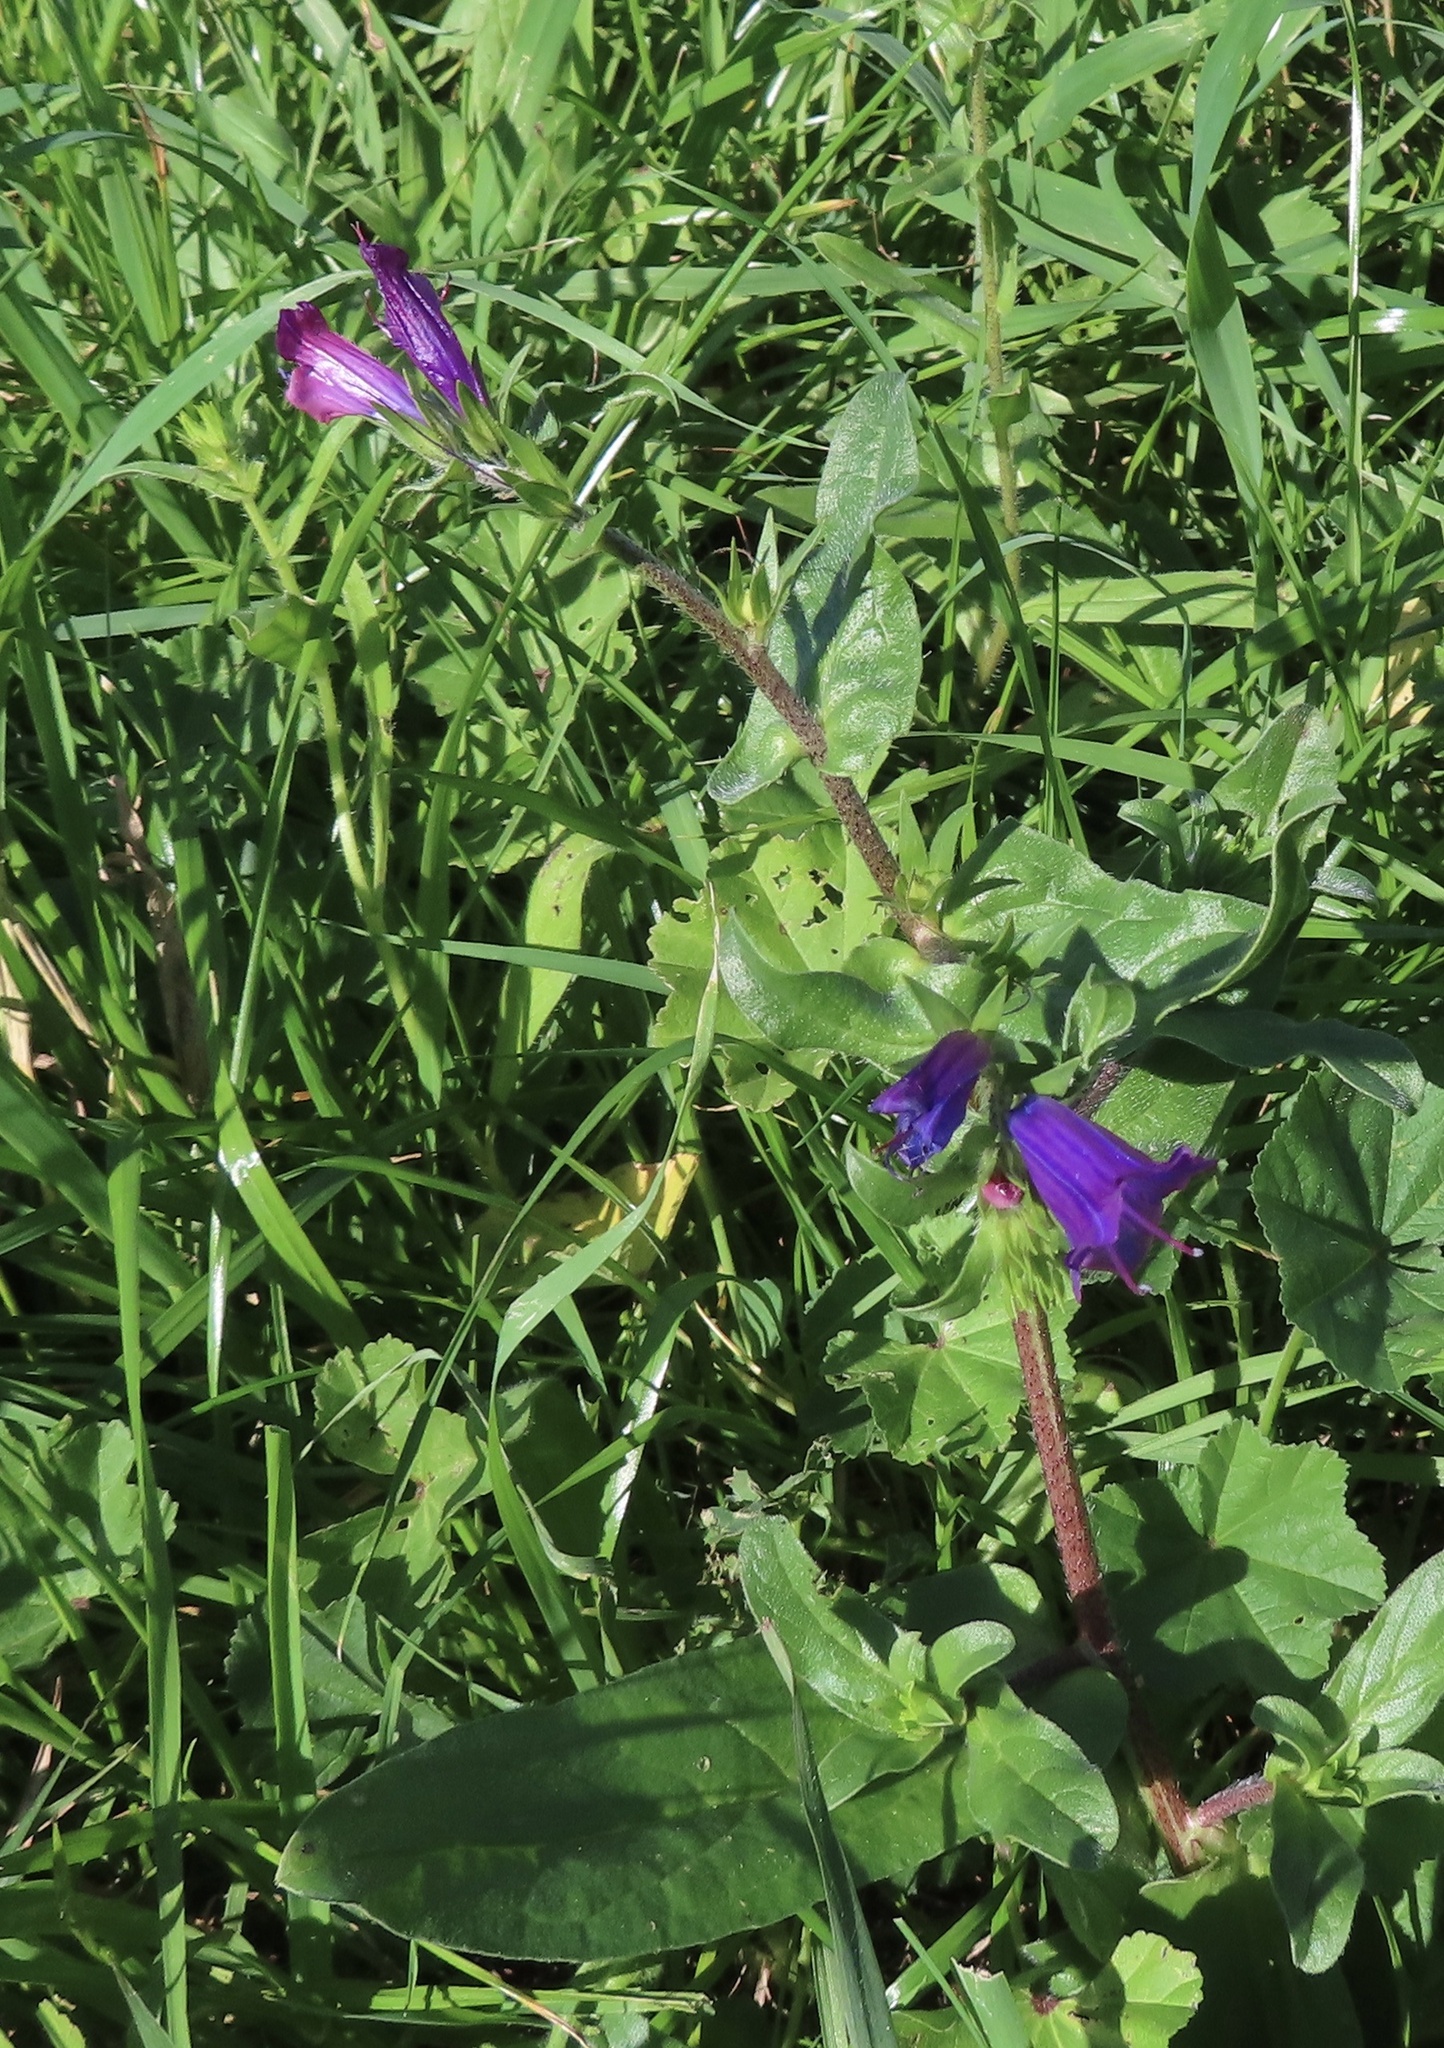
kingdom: Plantae
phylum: Tracheophyta
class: Magnoliopsida
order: Boraginales
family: Boraginaceae
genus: Echium
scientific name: Echium plantagineum
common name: Purple viper's-bugloss
